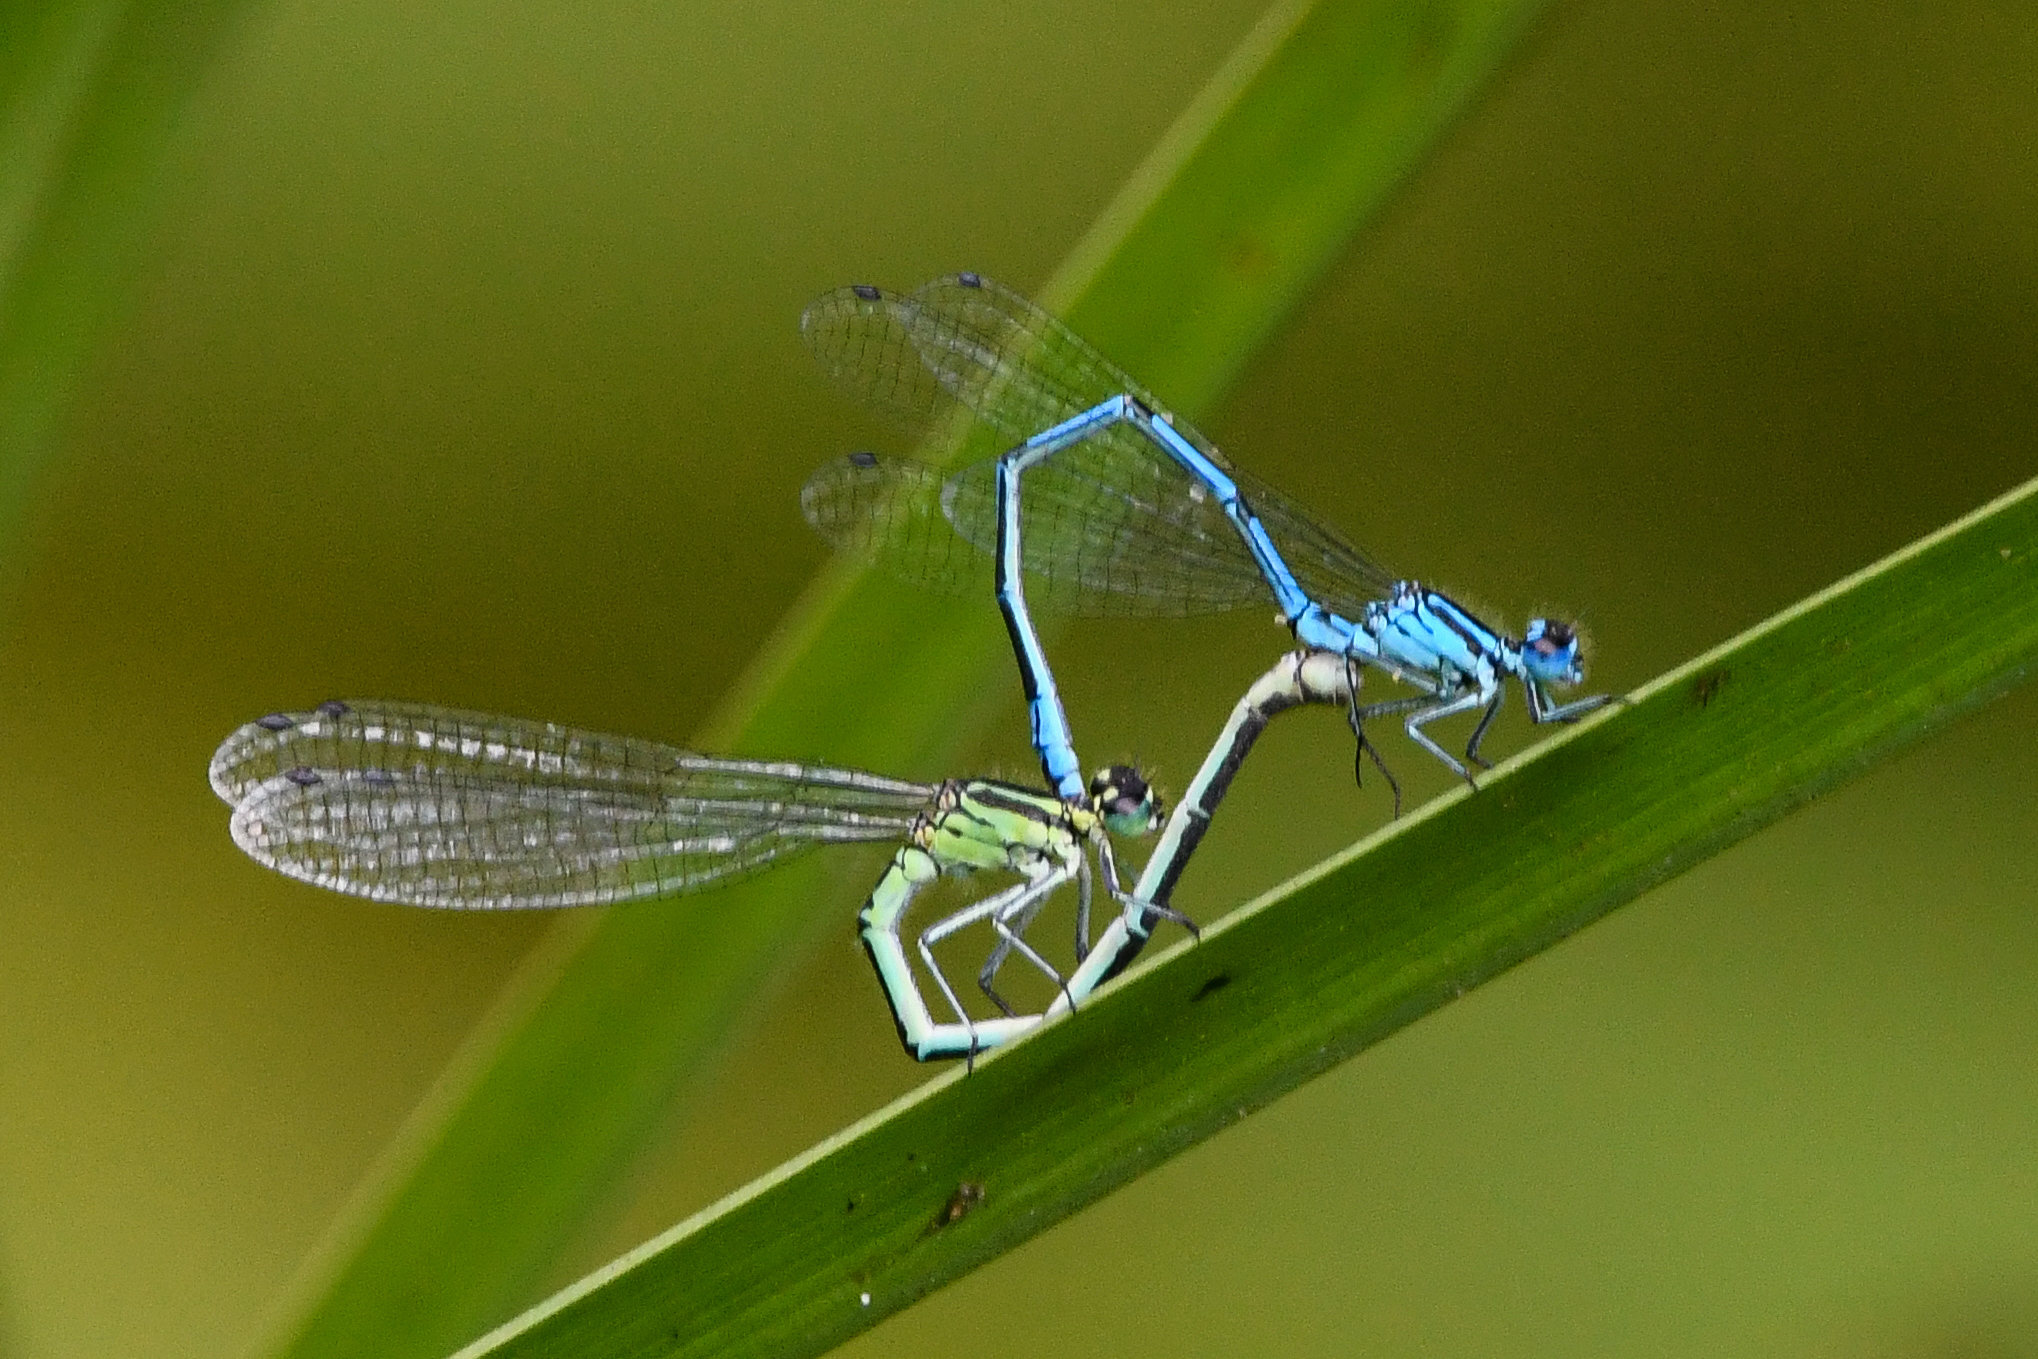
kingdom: Animalia
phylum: Arthropoda
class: Insecta
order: Odonata
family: Coenagrionidae
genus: Coenagrion
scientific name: Coenagrion puella
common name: Azure damselfly
